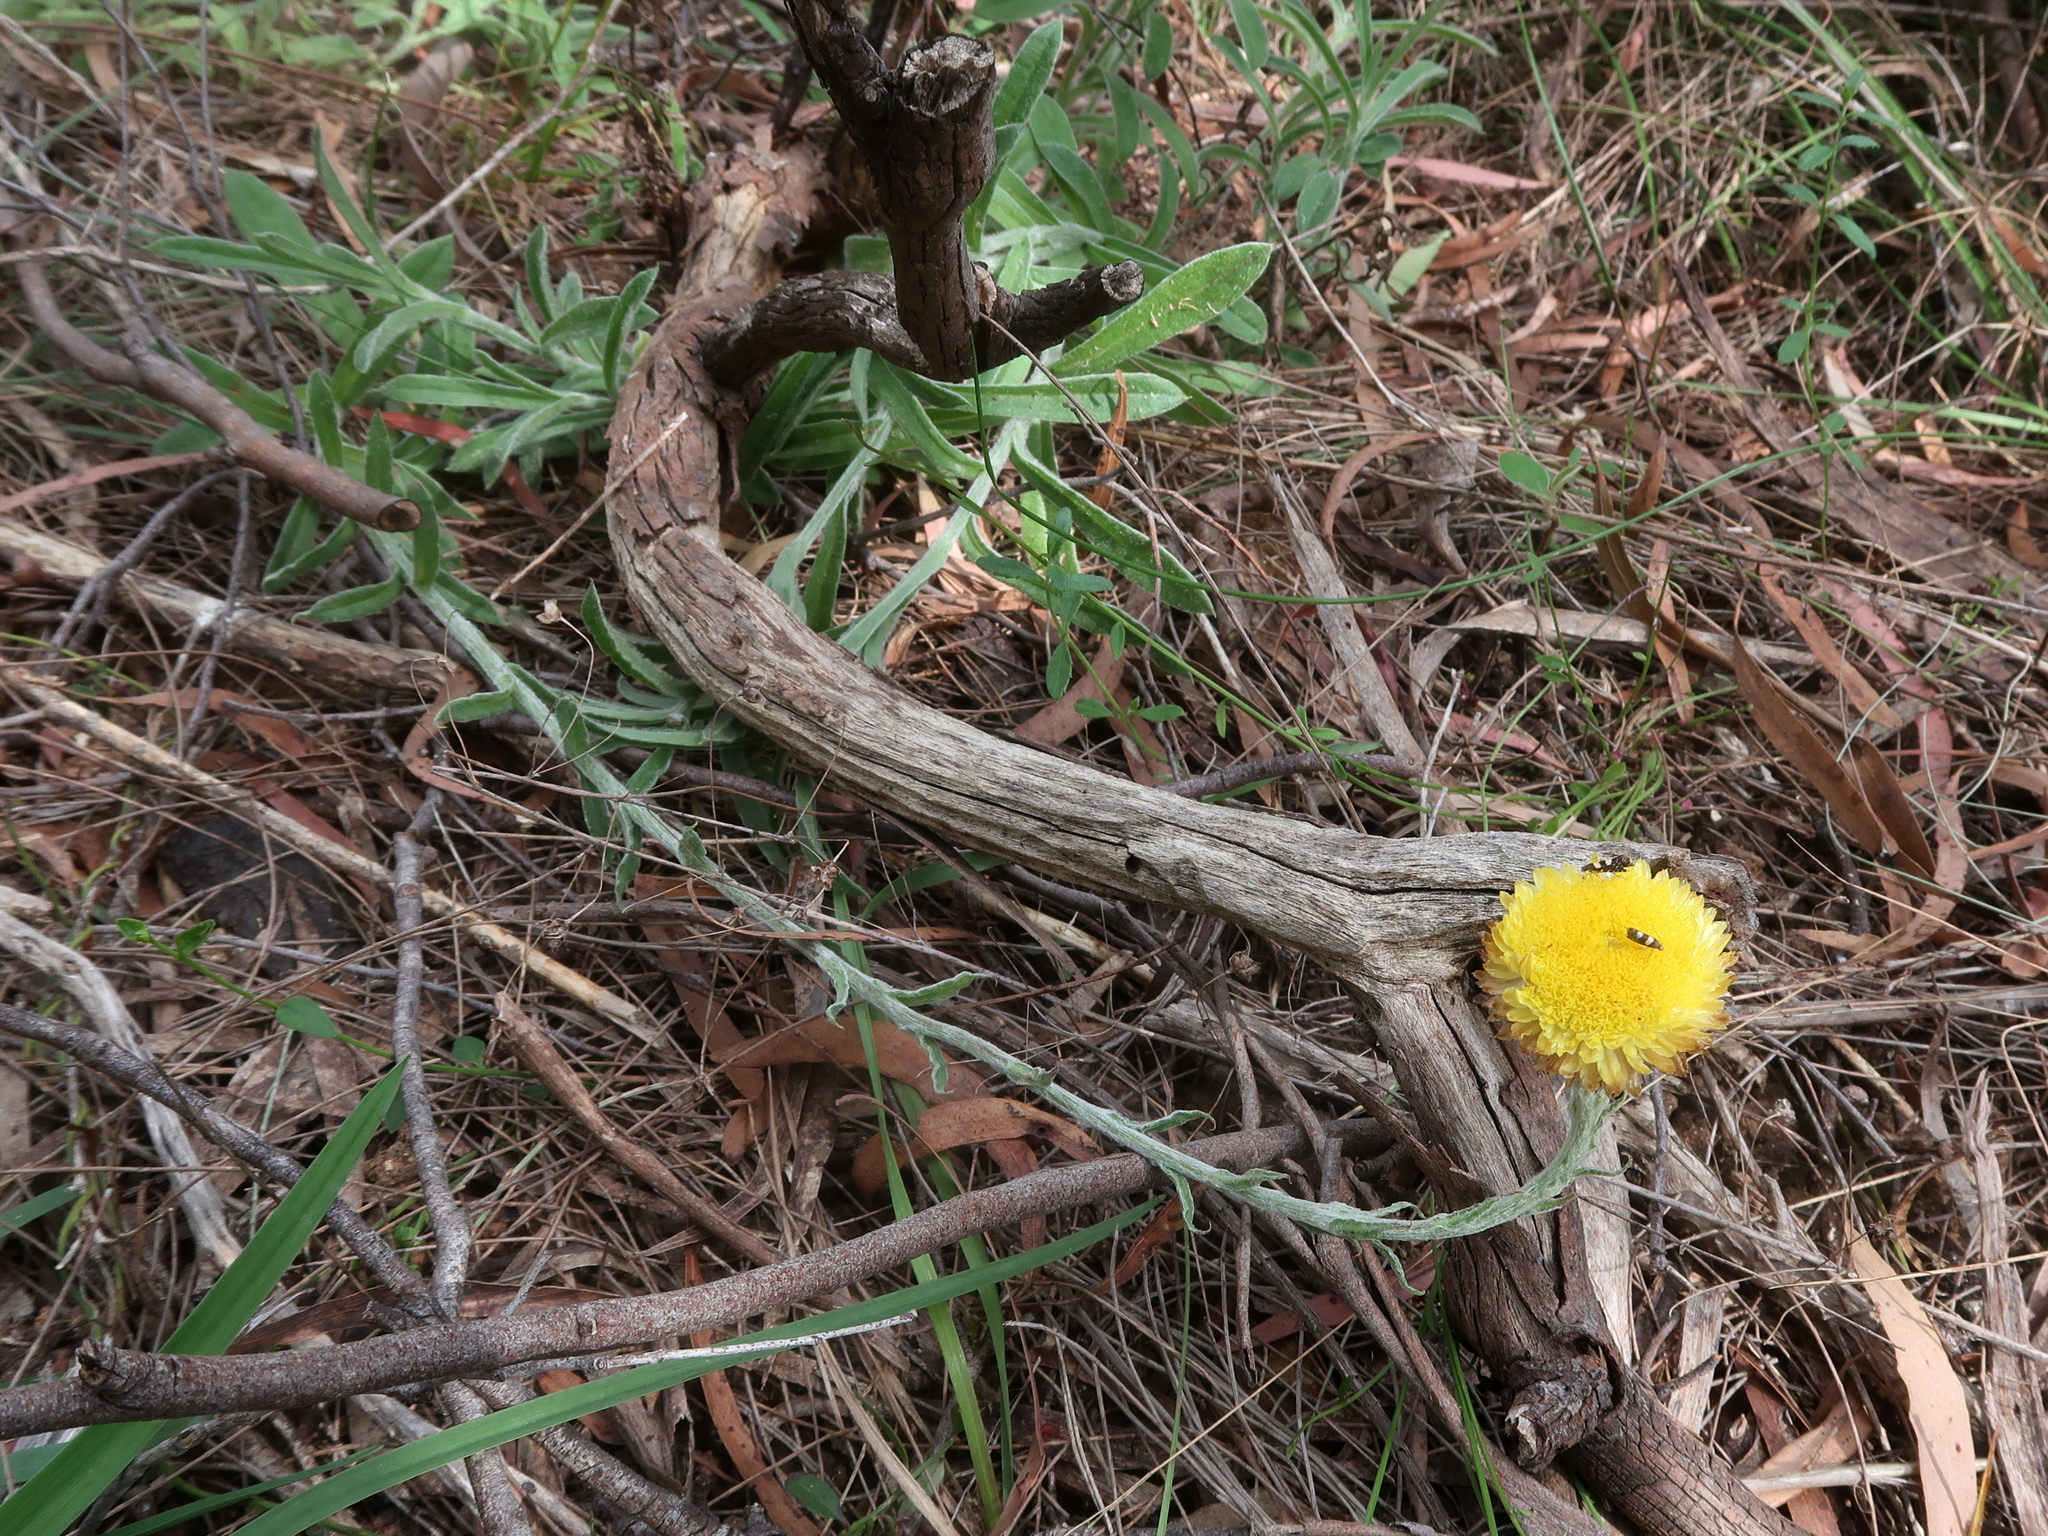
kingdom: Plantae
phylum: Tracheophyta
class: Magnoliopsida
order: Asterales
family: Asteraceae
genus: Coronidium
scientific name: Coronidium scorpioides
